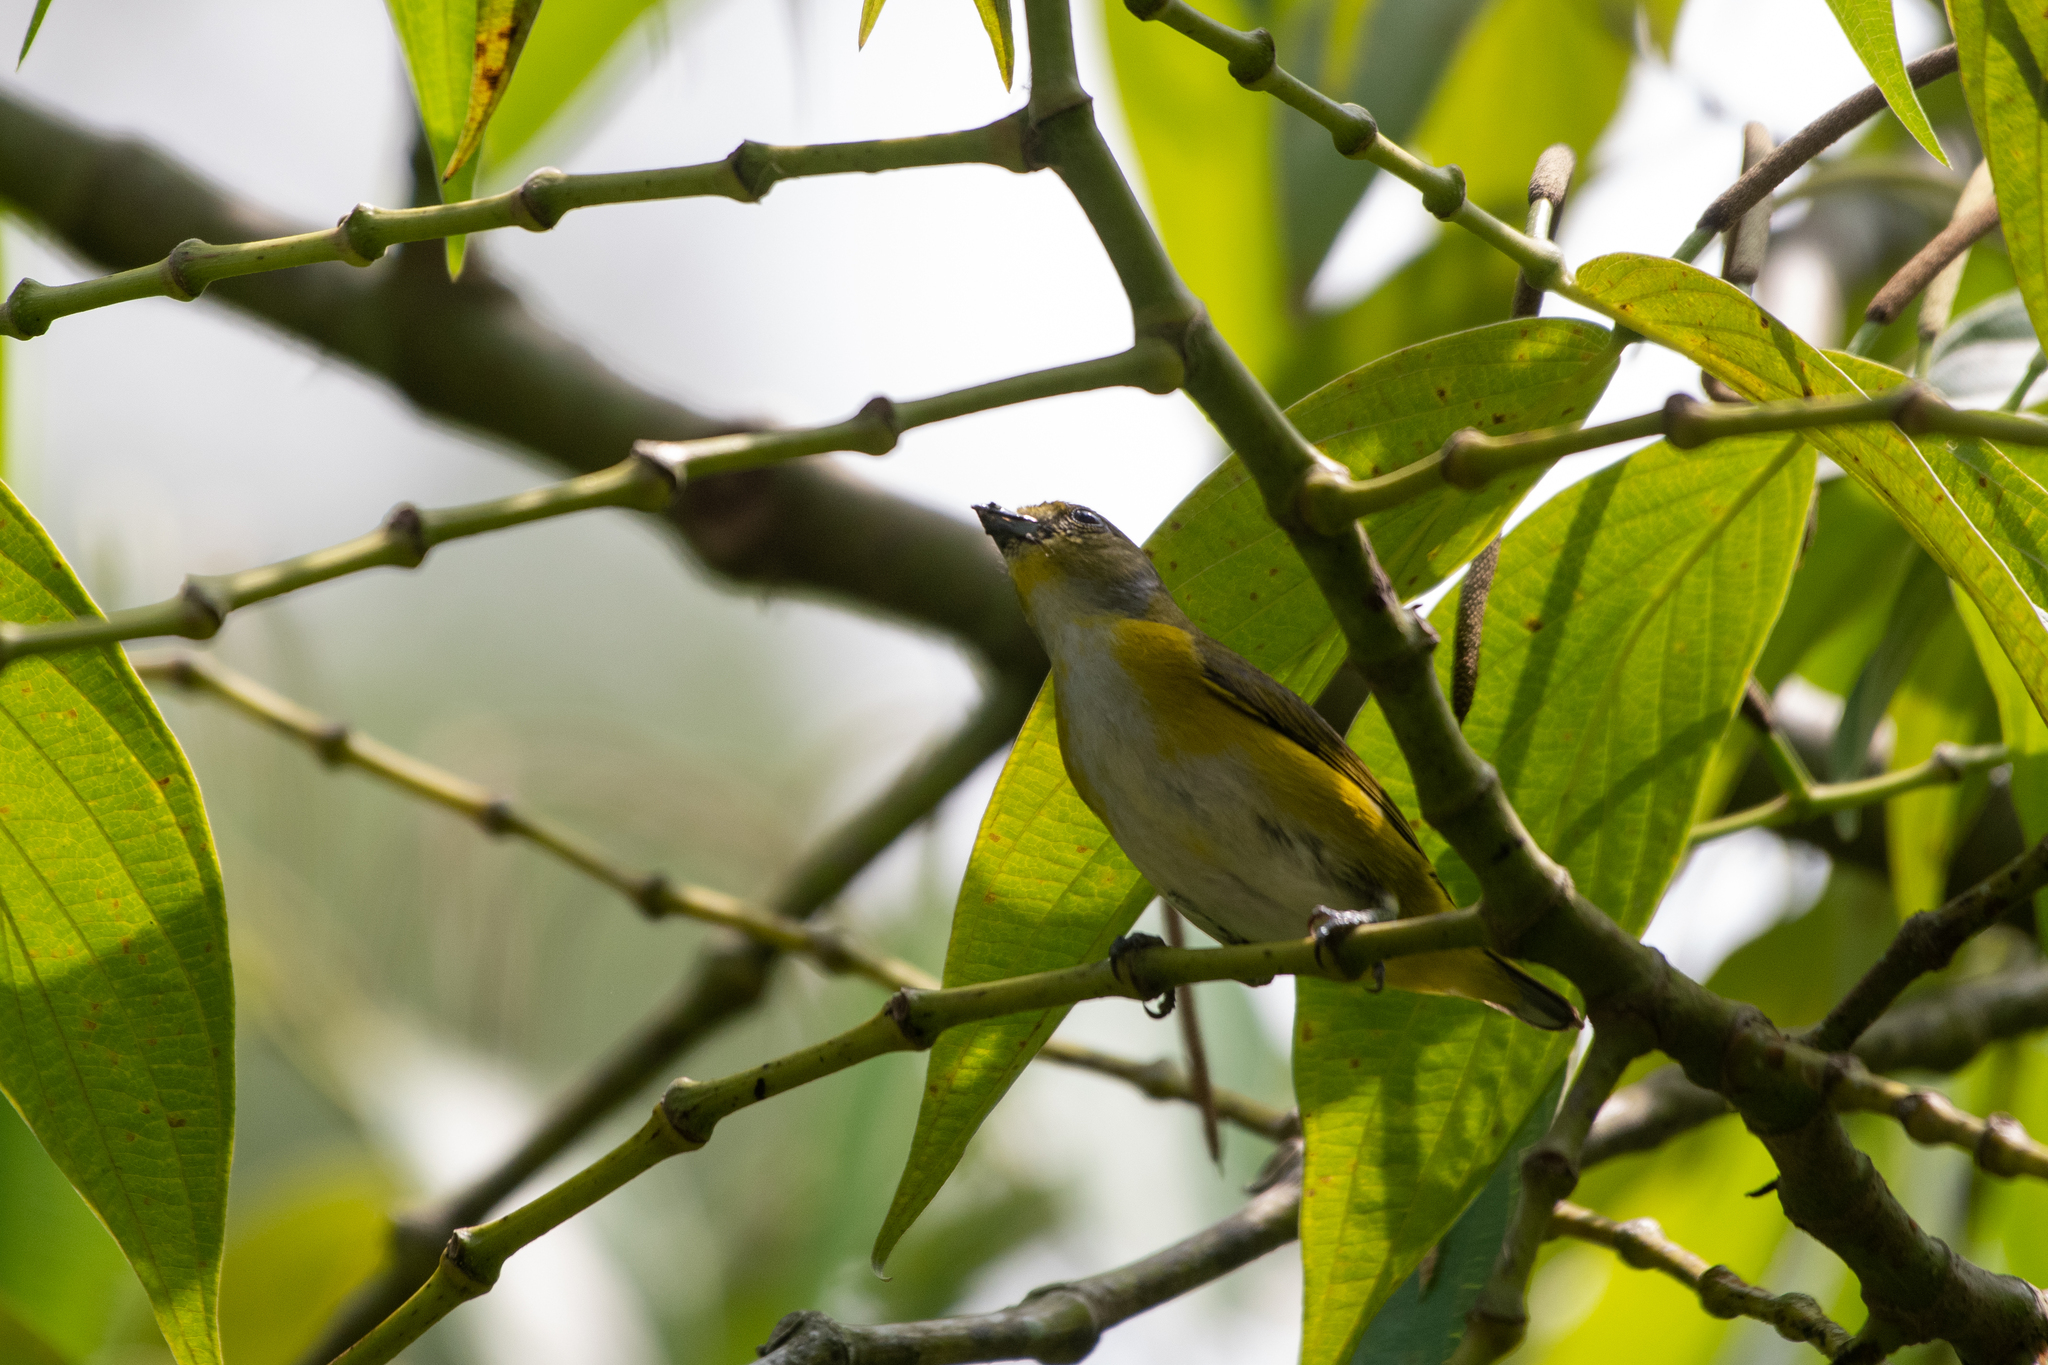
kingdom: Animalia
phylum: Chordata
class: Aves
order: Passeriformes
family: Fringillidae
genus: Euphonia
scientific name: Euphonia hirundinacea
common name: Yellow-throated euphonia
